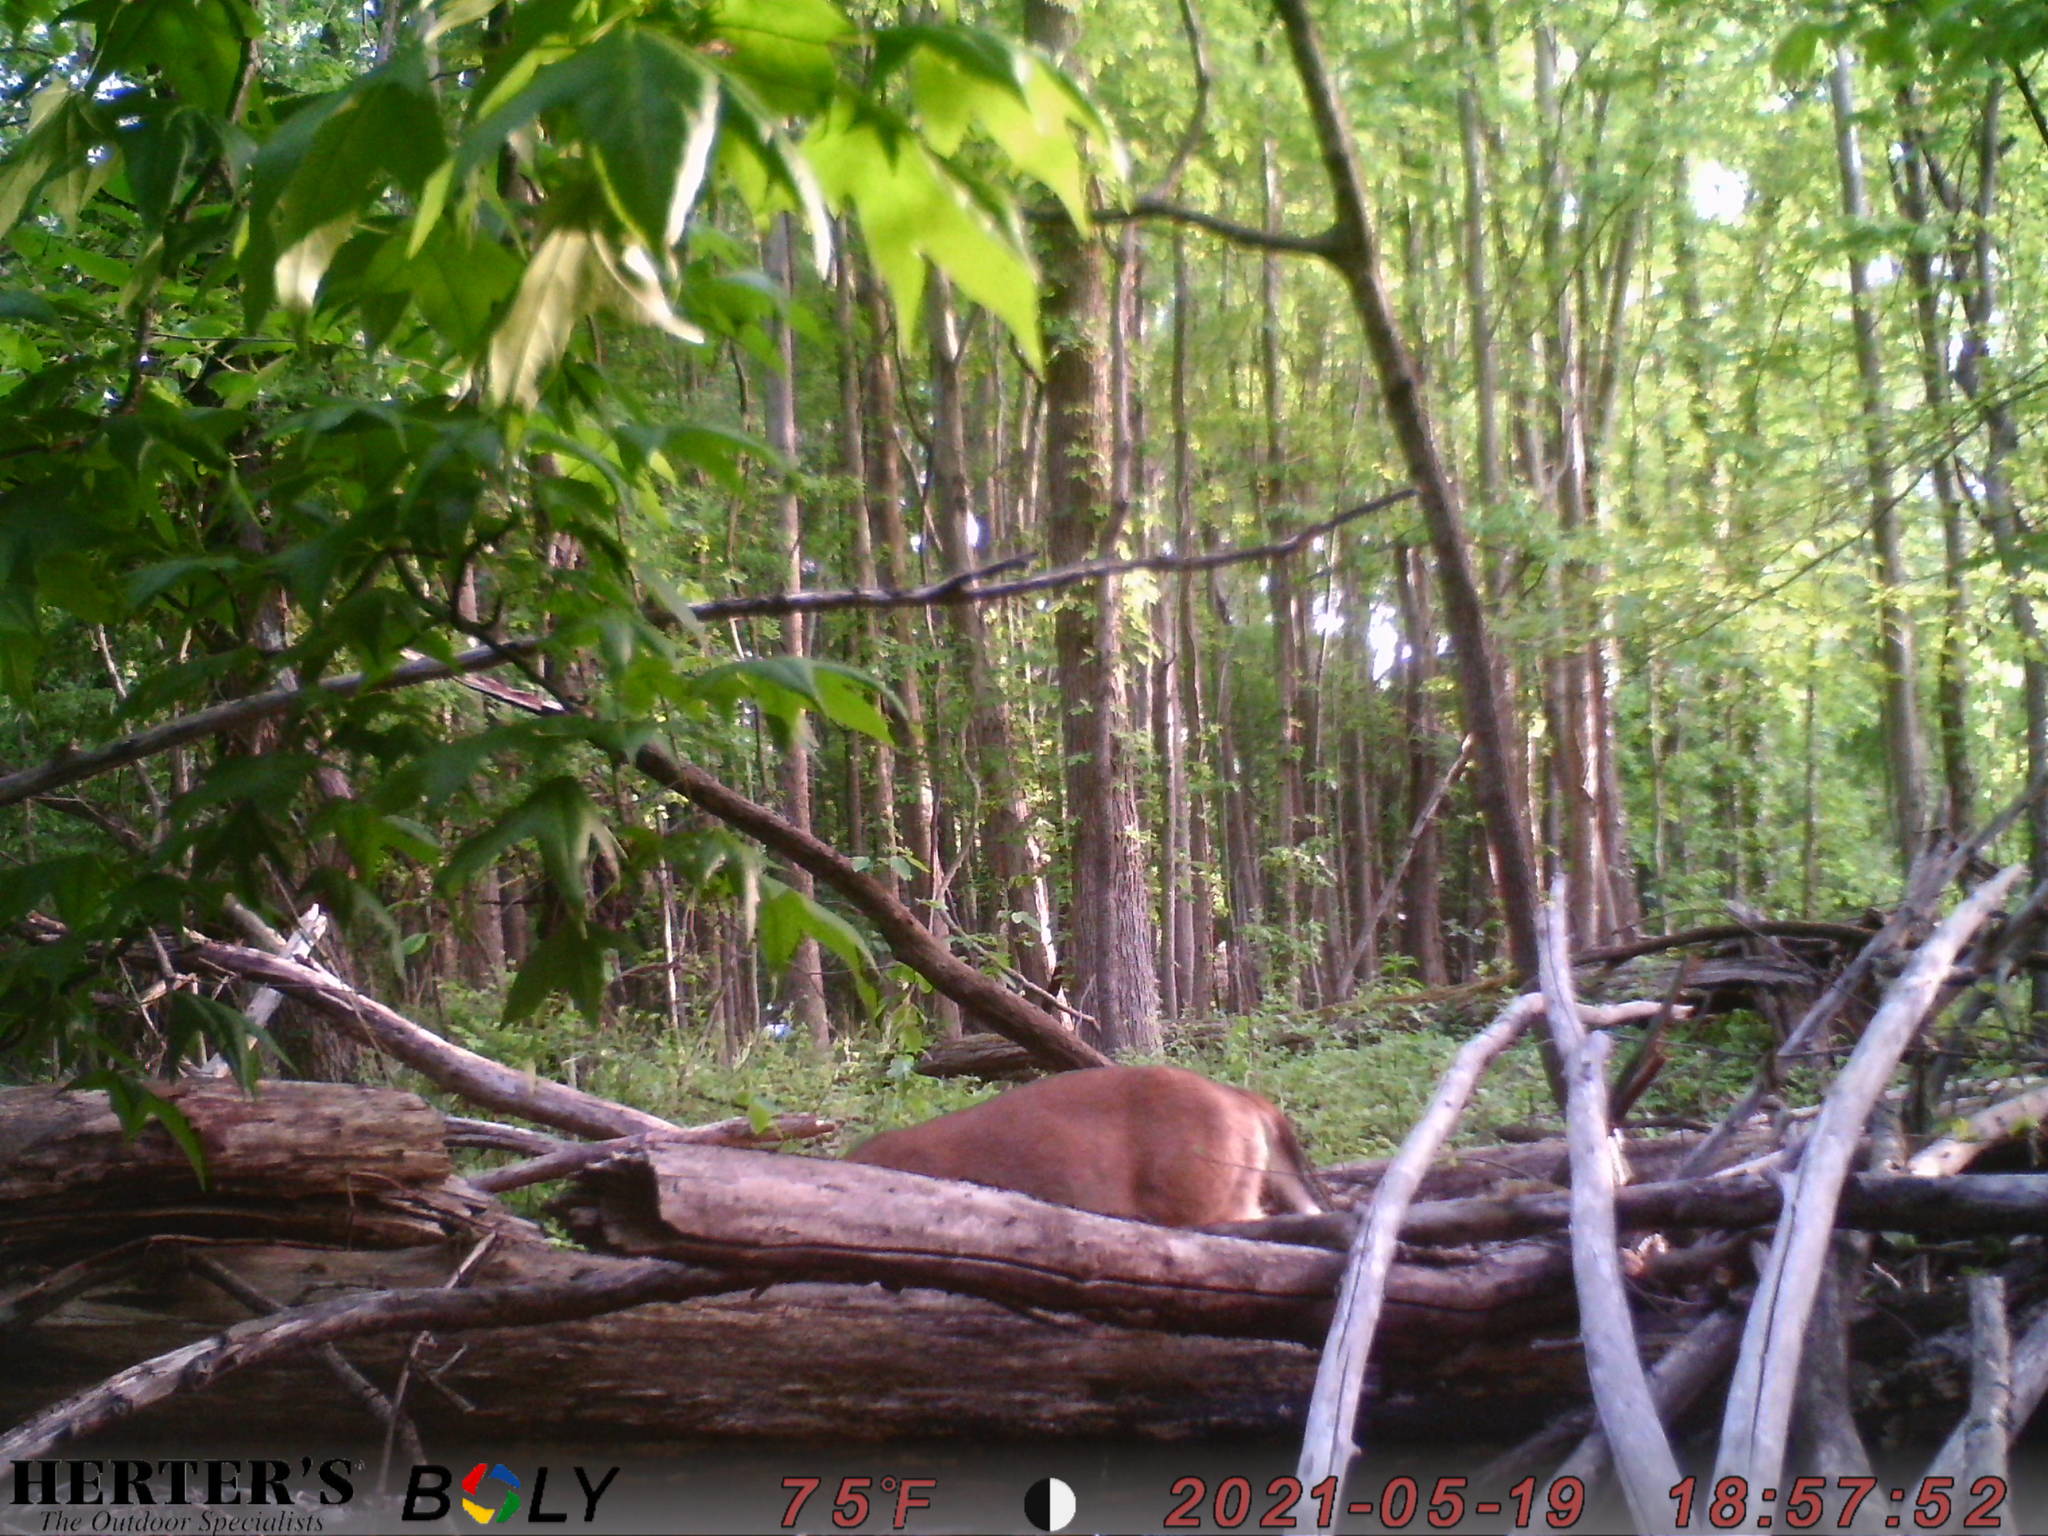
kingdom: Animalia
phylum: Chordata
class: Mammalia
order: Artiodactyla
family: Cervidae
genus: Odocoileus
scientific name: Odocoileus virginianus
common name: White-tailed deer
